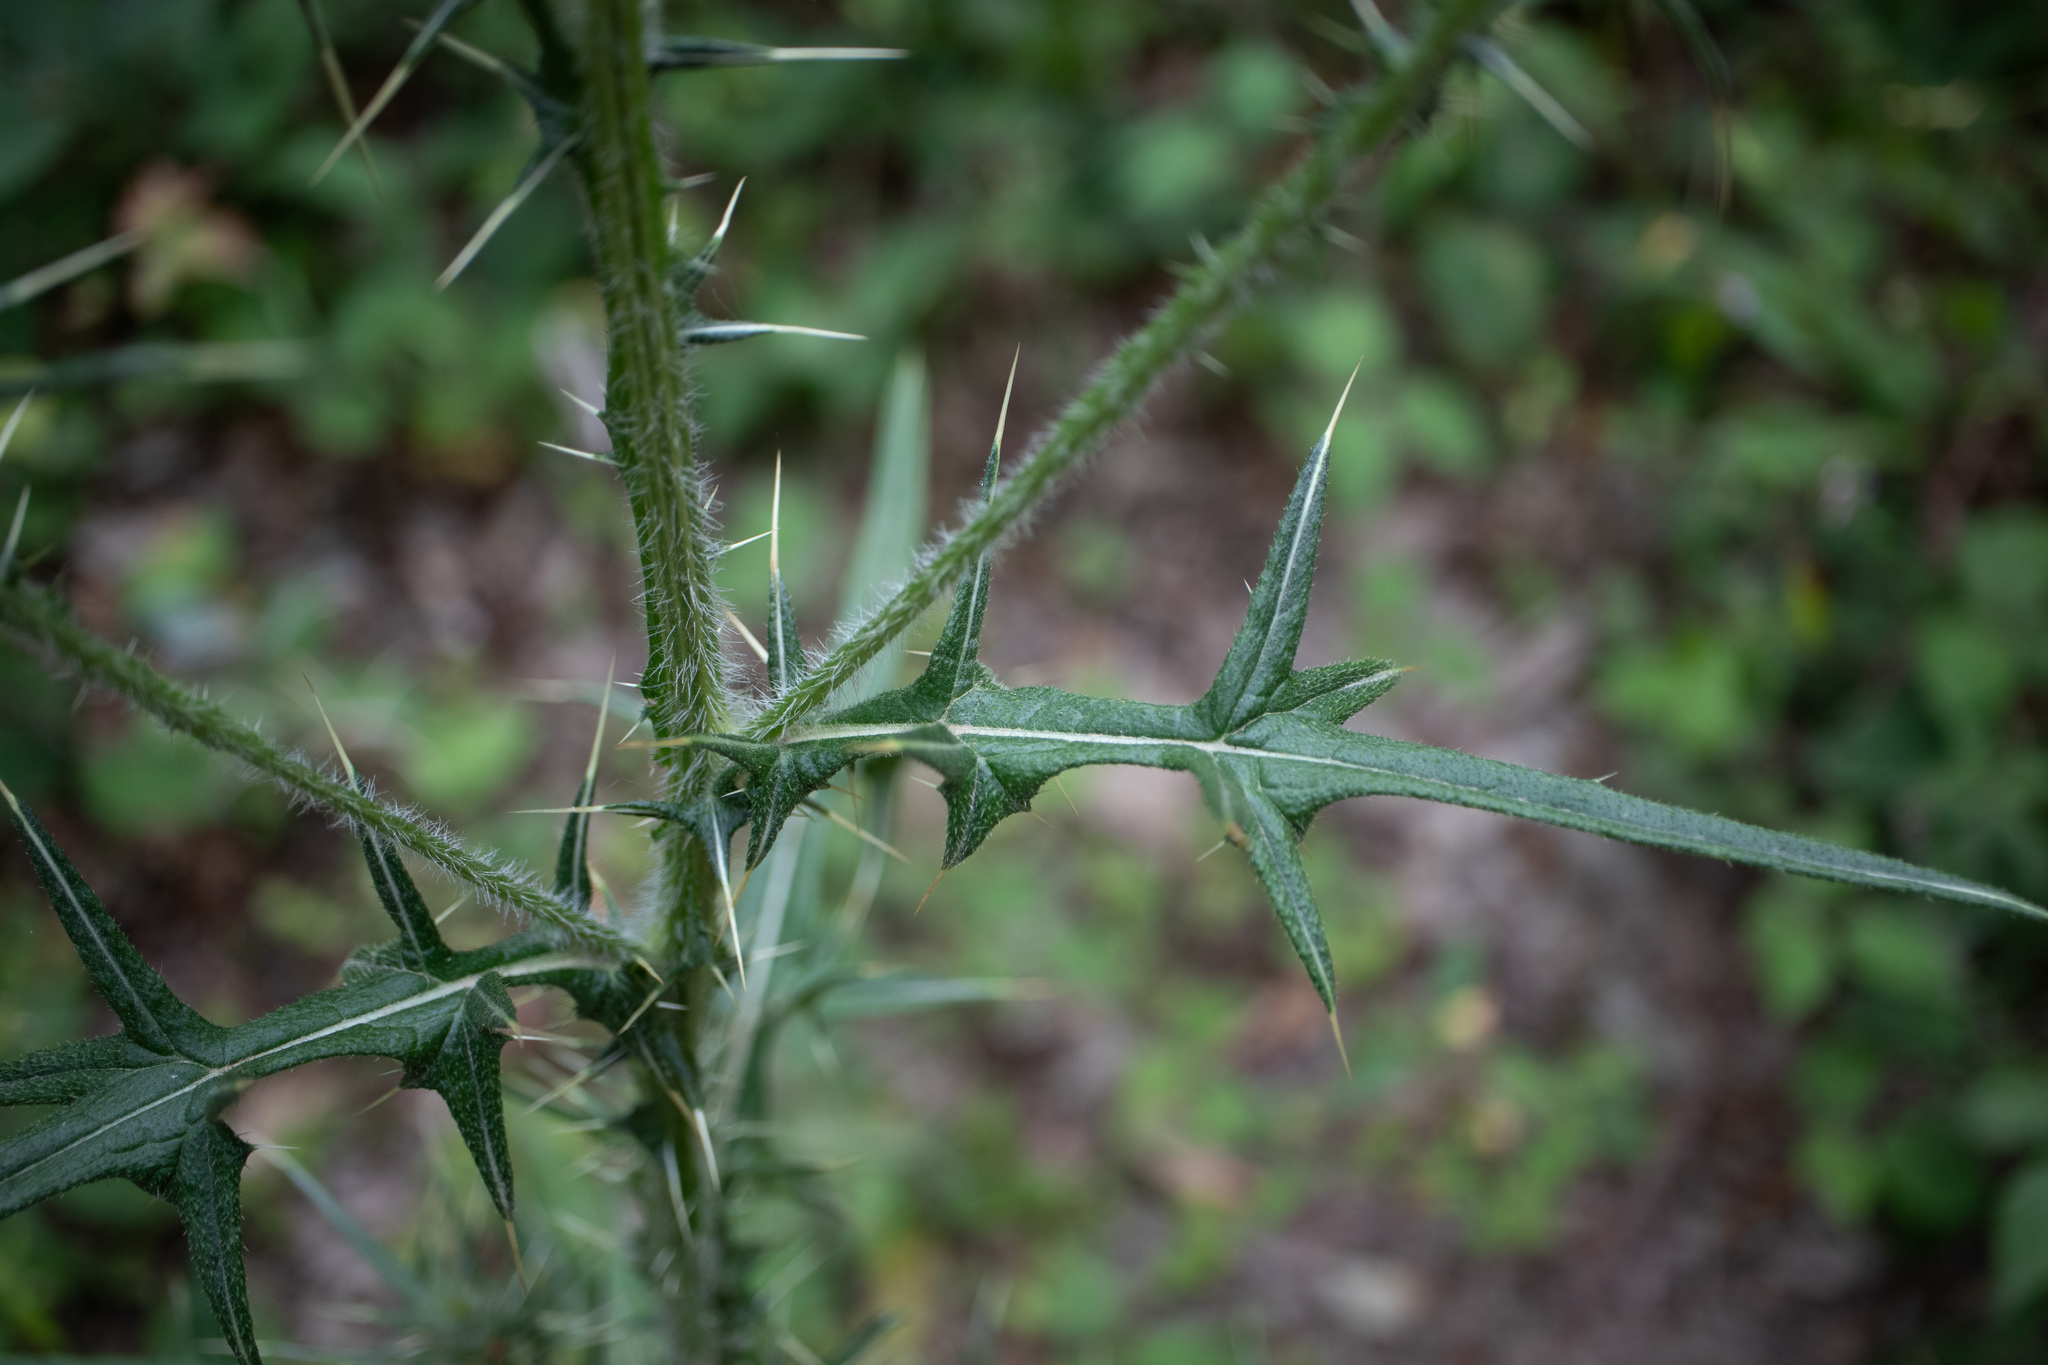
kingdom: Plantae
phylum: Tracheophyta
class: Magnoliopsida
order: Asterales
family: Asteraceae
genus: Cirsium
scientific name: Cirsium vulgare
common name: Bull thistle
